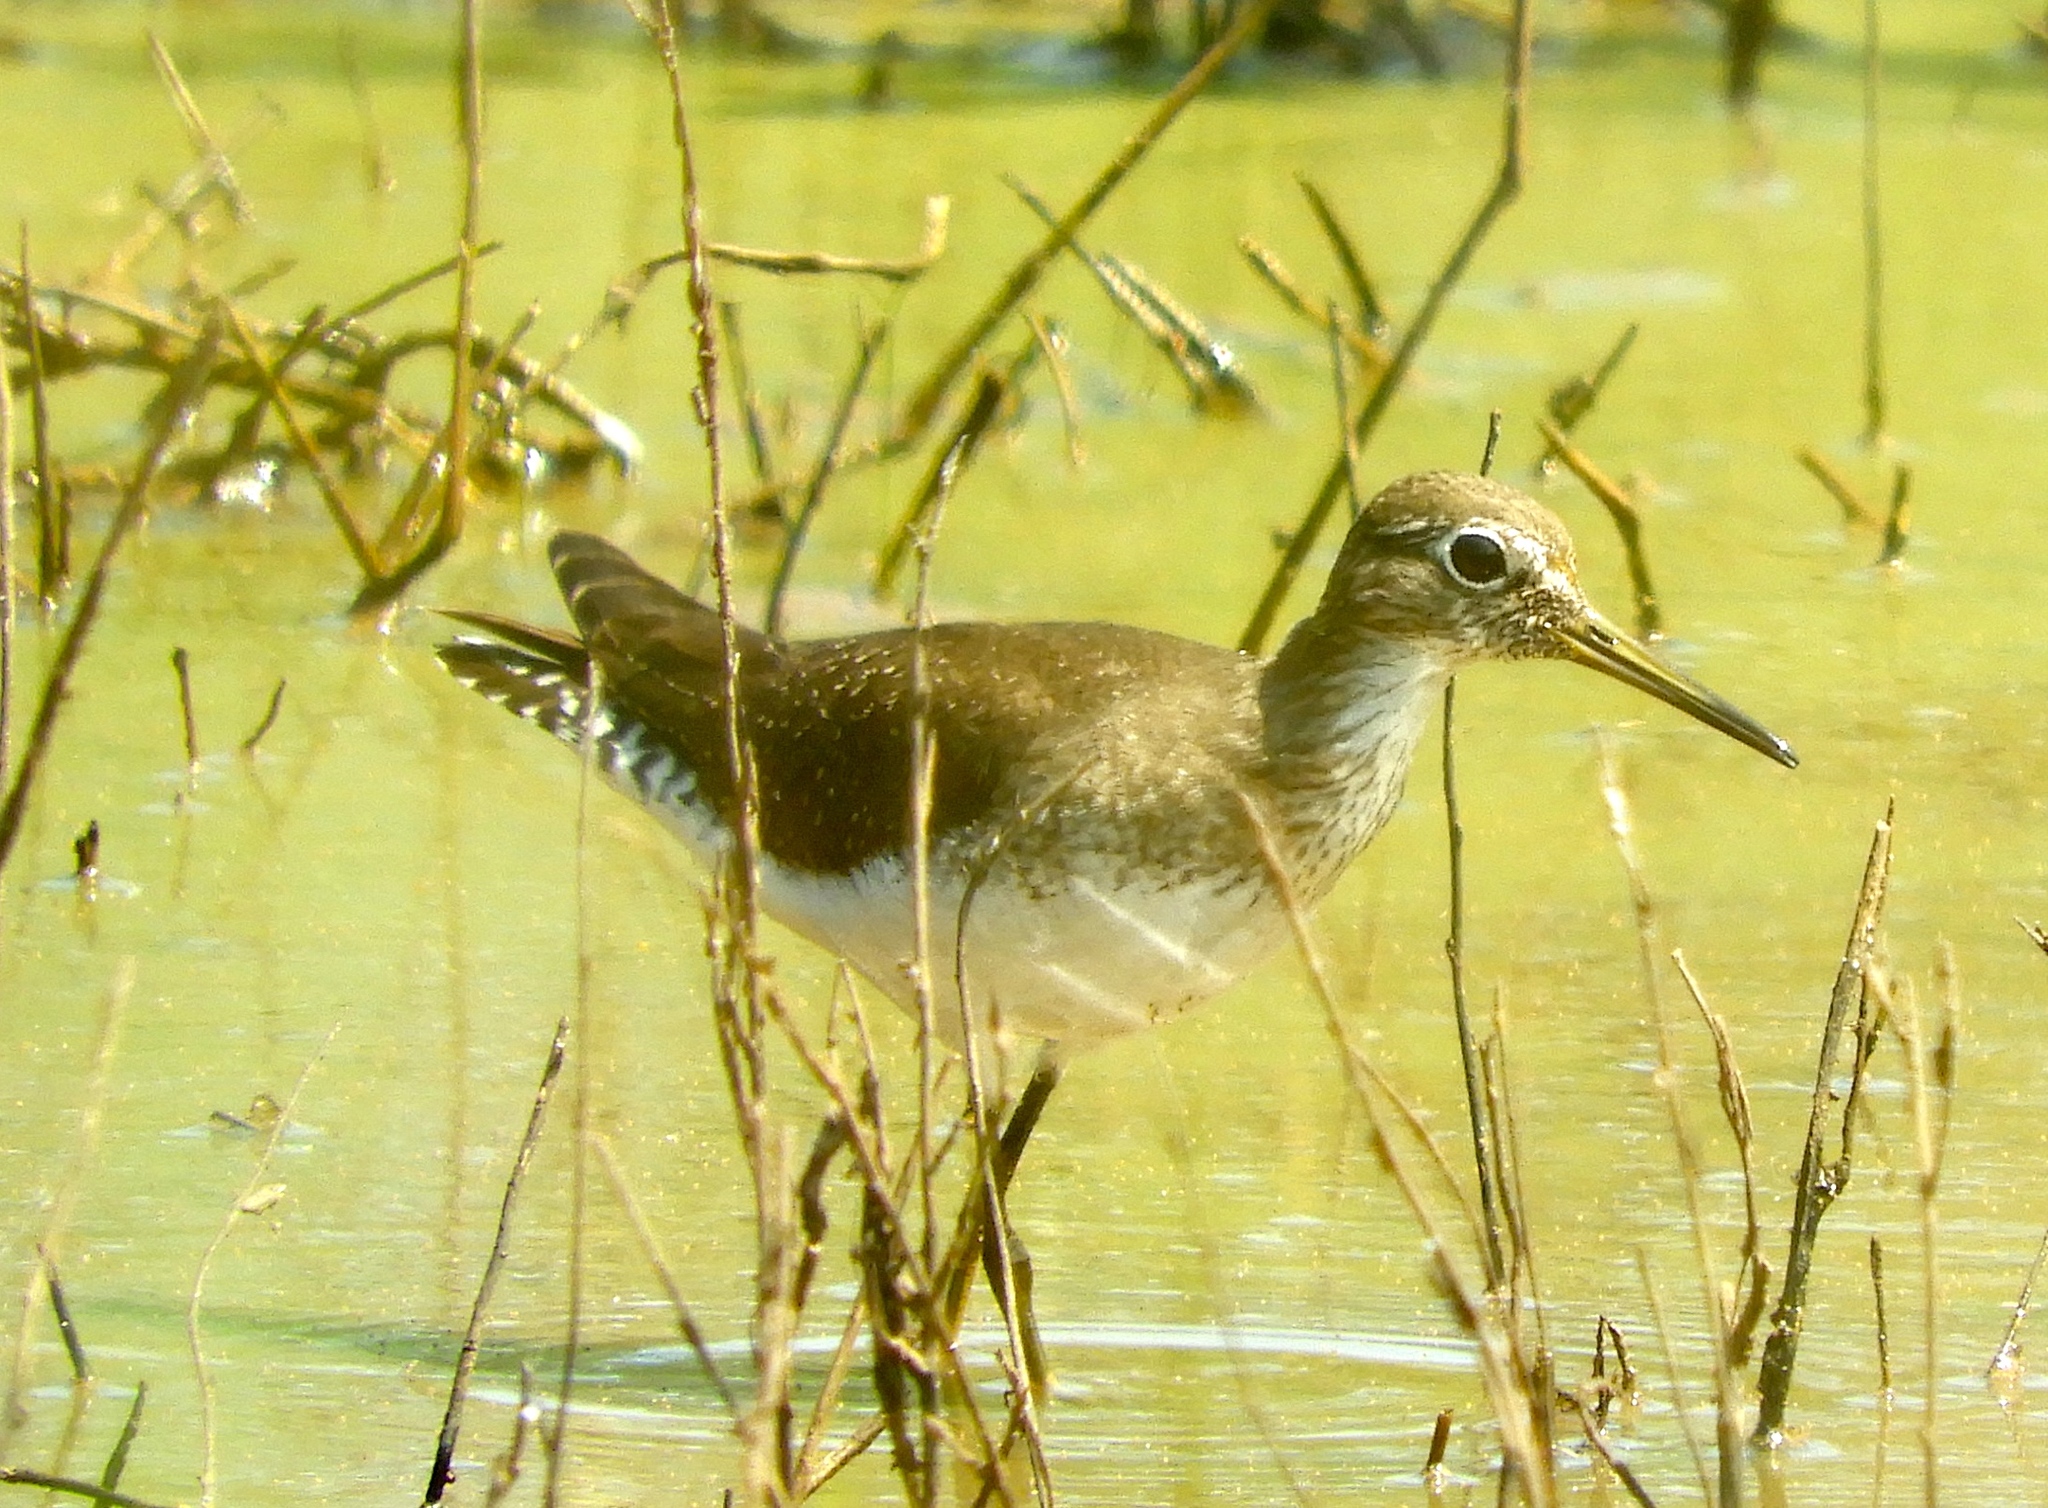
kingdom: Animalia
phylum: Chordata
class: Aves
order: Charadriiformes
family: Scolopacidae
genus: Tringa
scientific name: Tringa solitaria
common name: Solitary sandpiper
